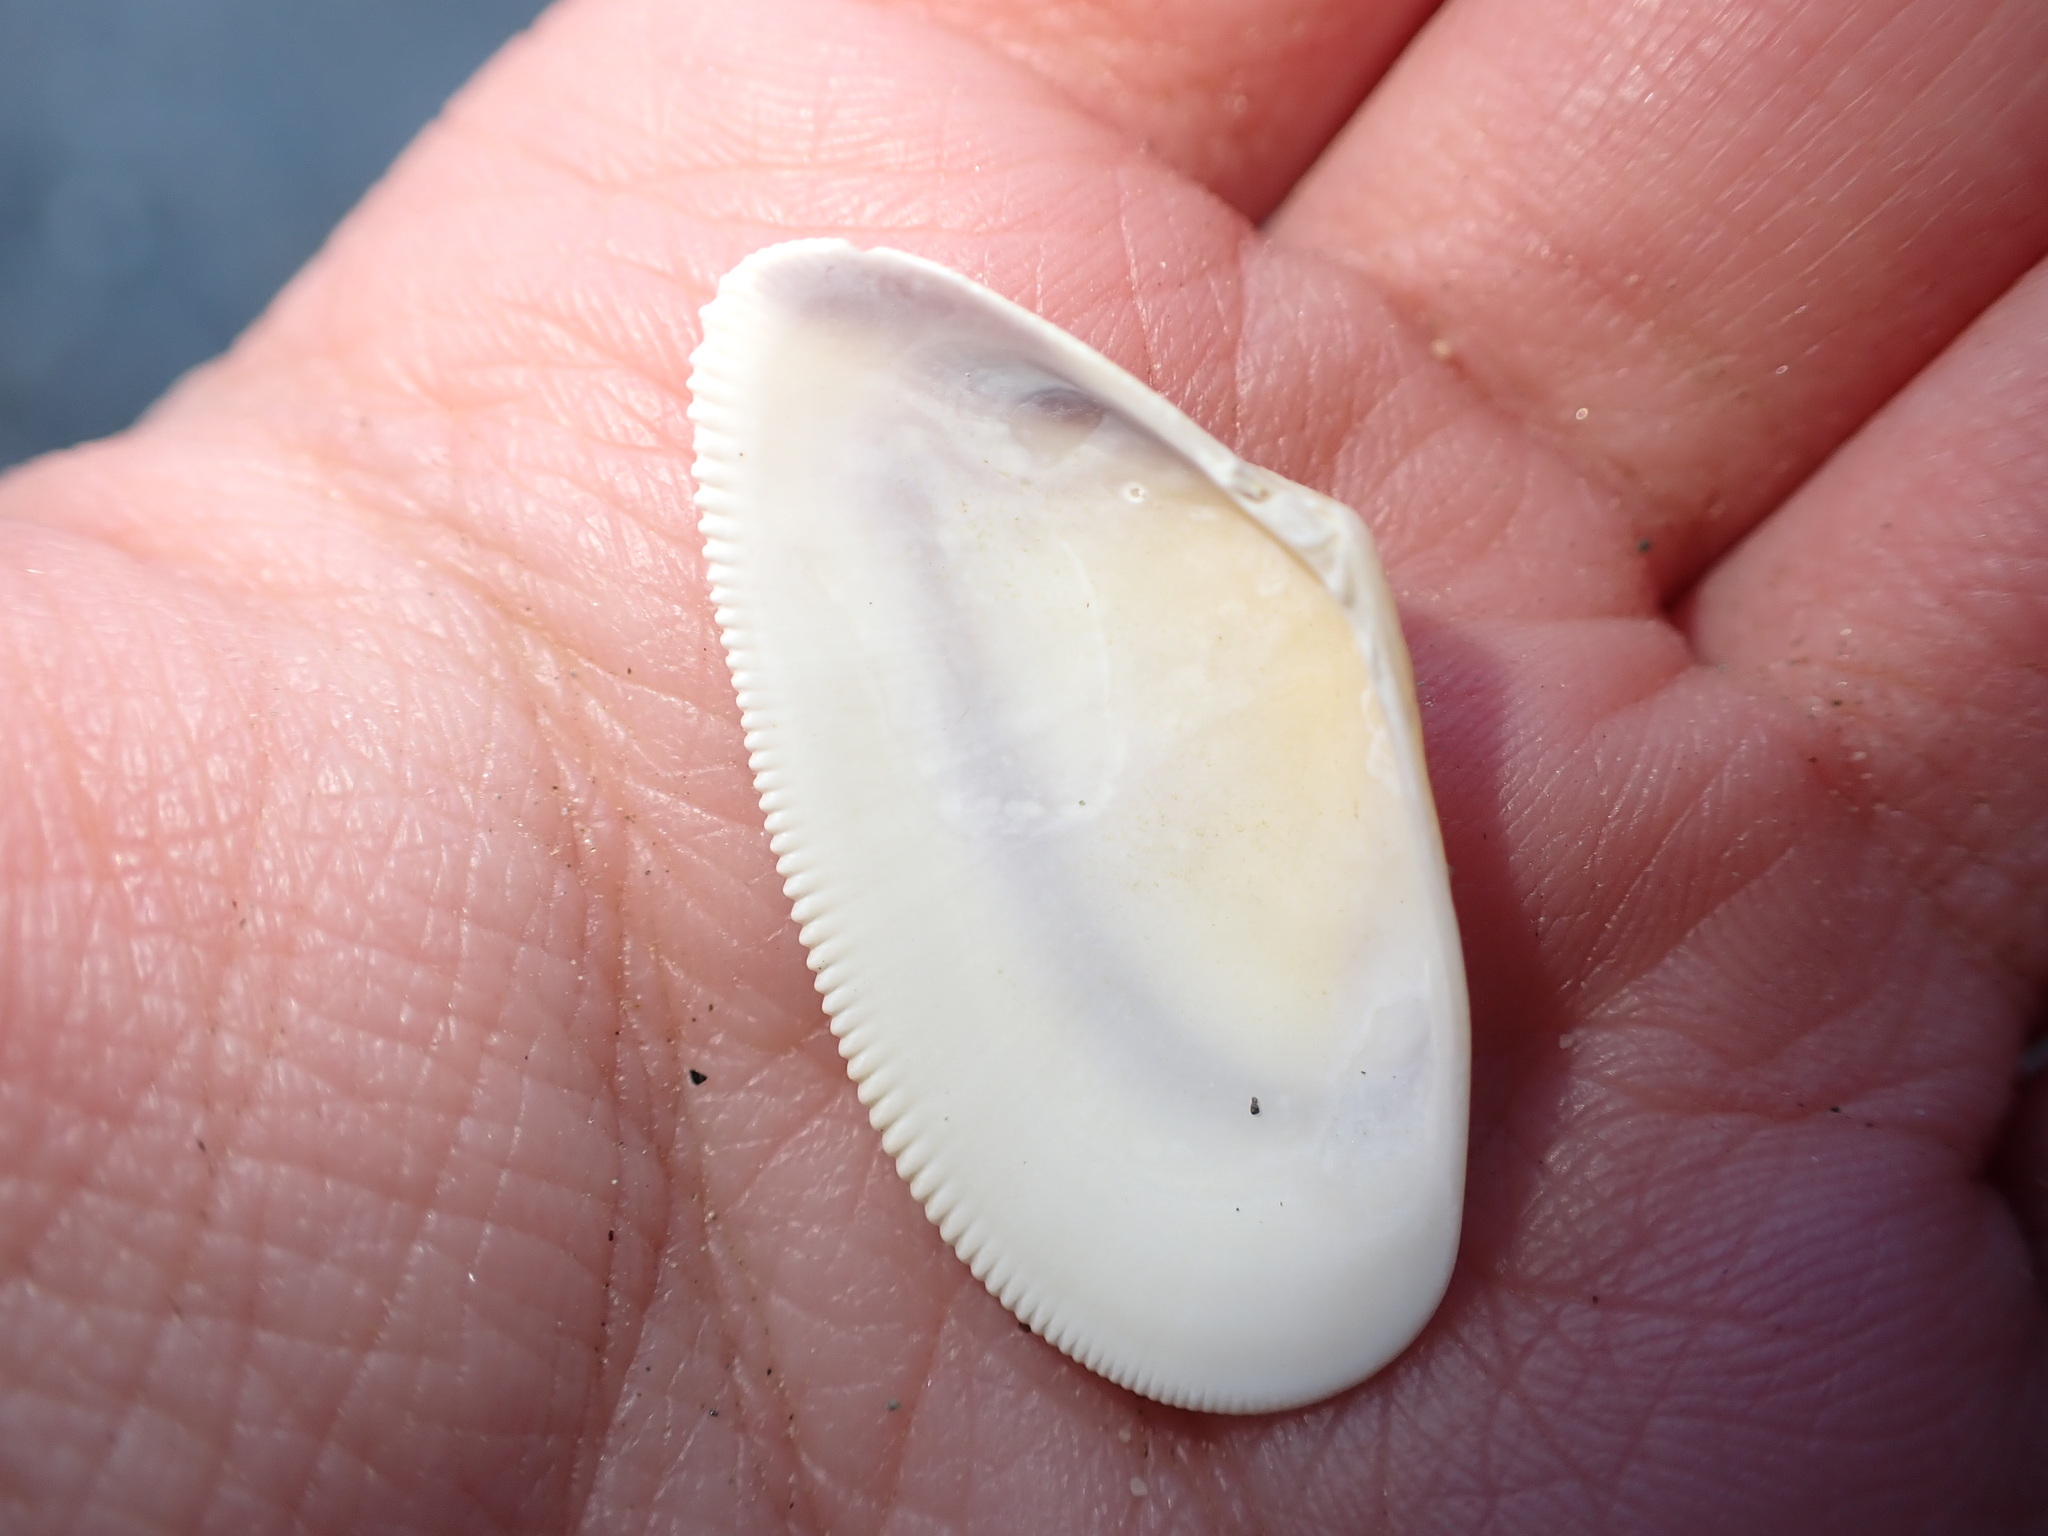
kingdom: Animalia
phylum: Mollusca
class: Bivalvia
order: Cardiida
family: Donacidae
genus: Donax
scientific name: Donax semistriatus
